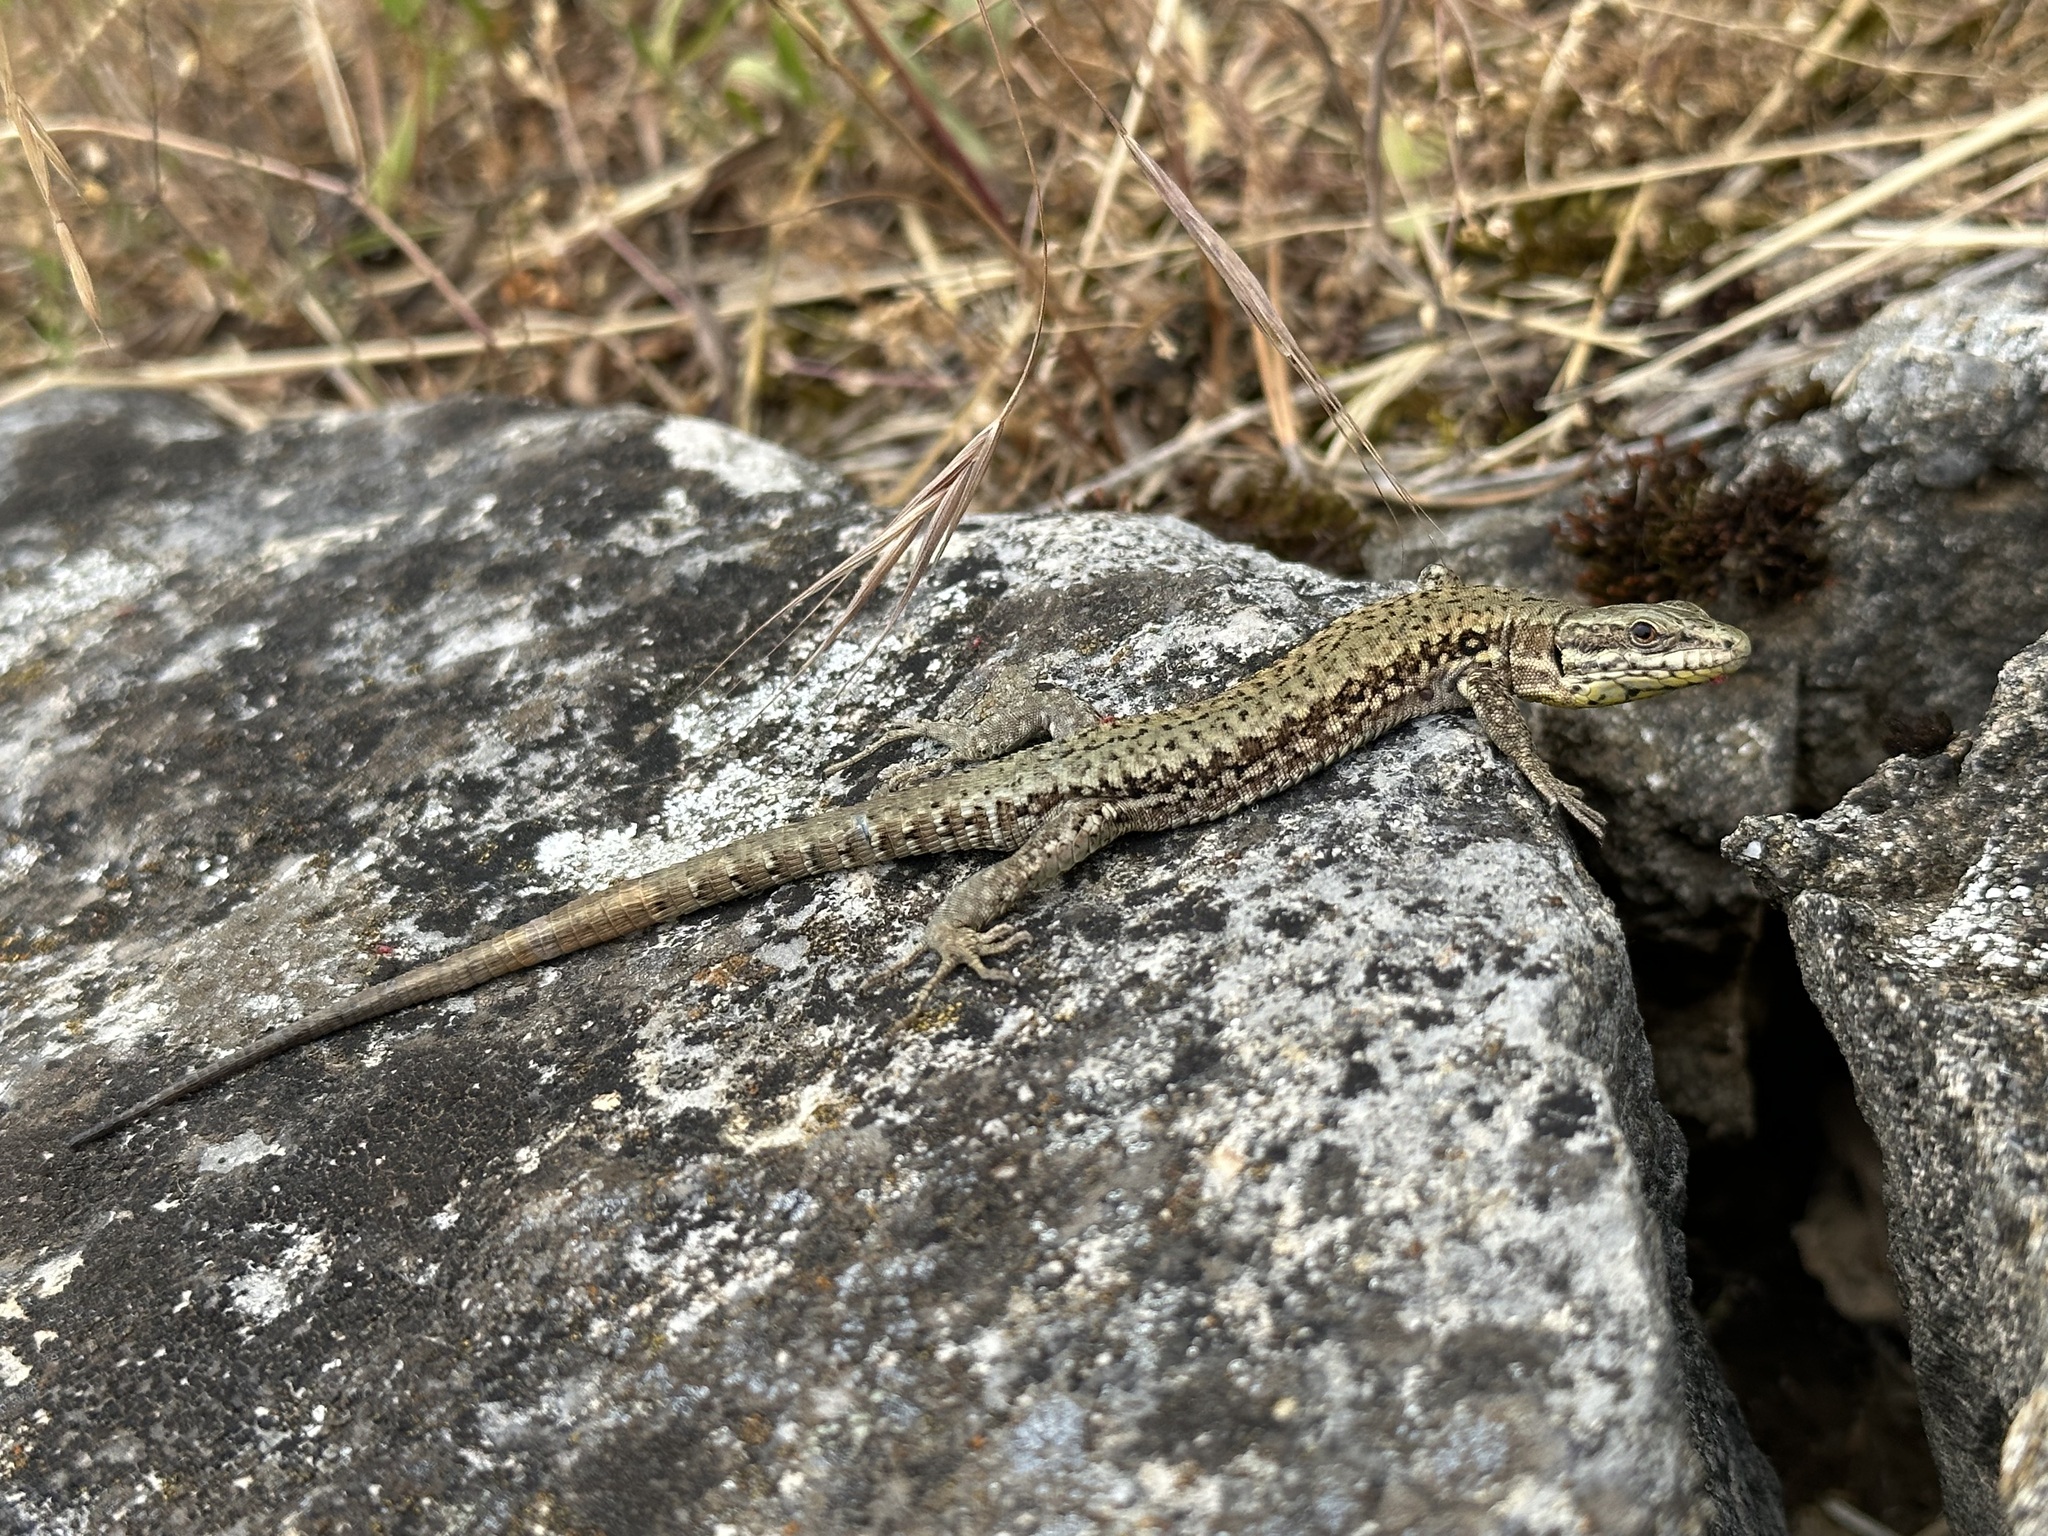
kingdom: Animalia
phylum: Chordata
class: Squamata
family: Lacertidae
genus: Podarcis
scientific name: Podarcis muralis
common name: Common wall lizard
